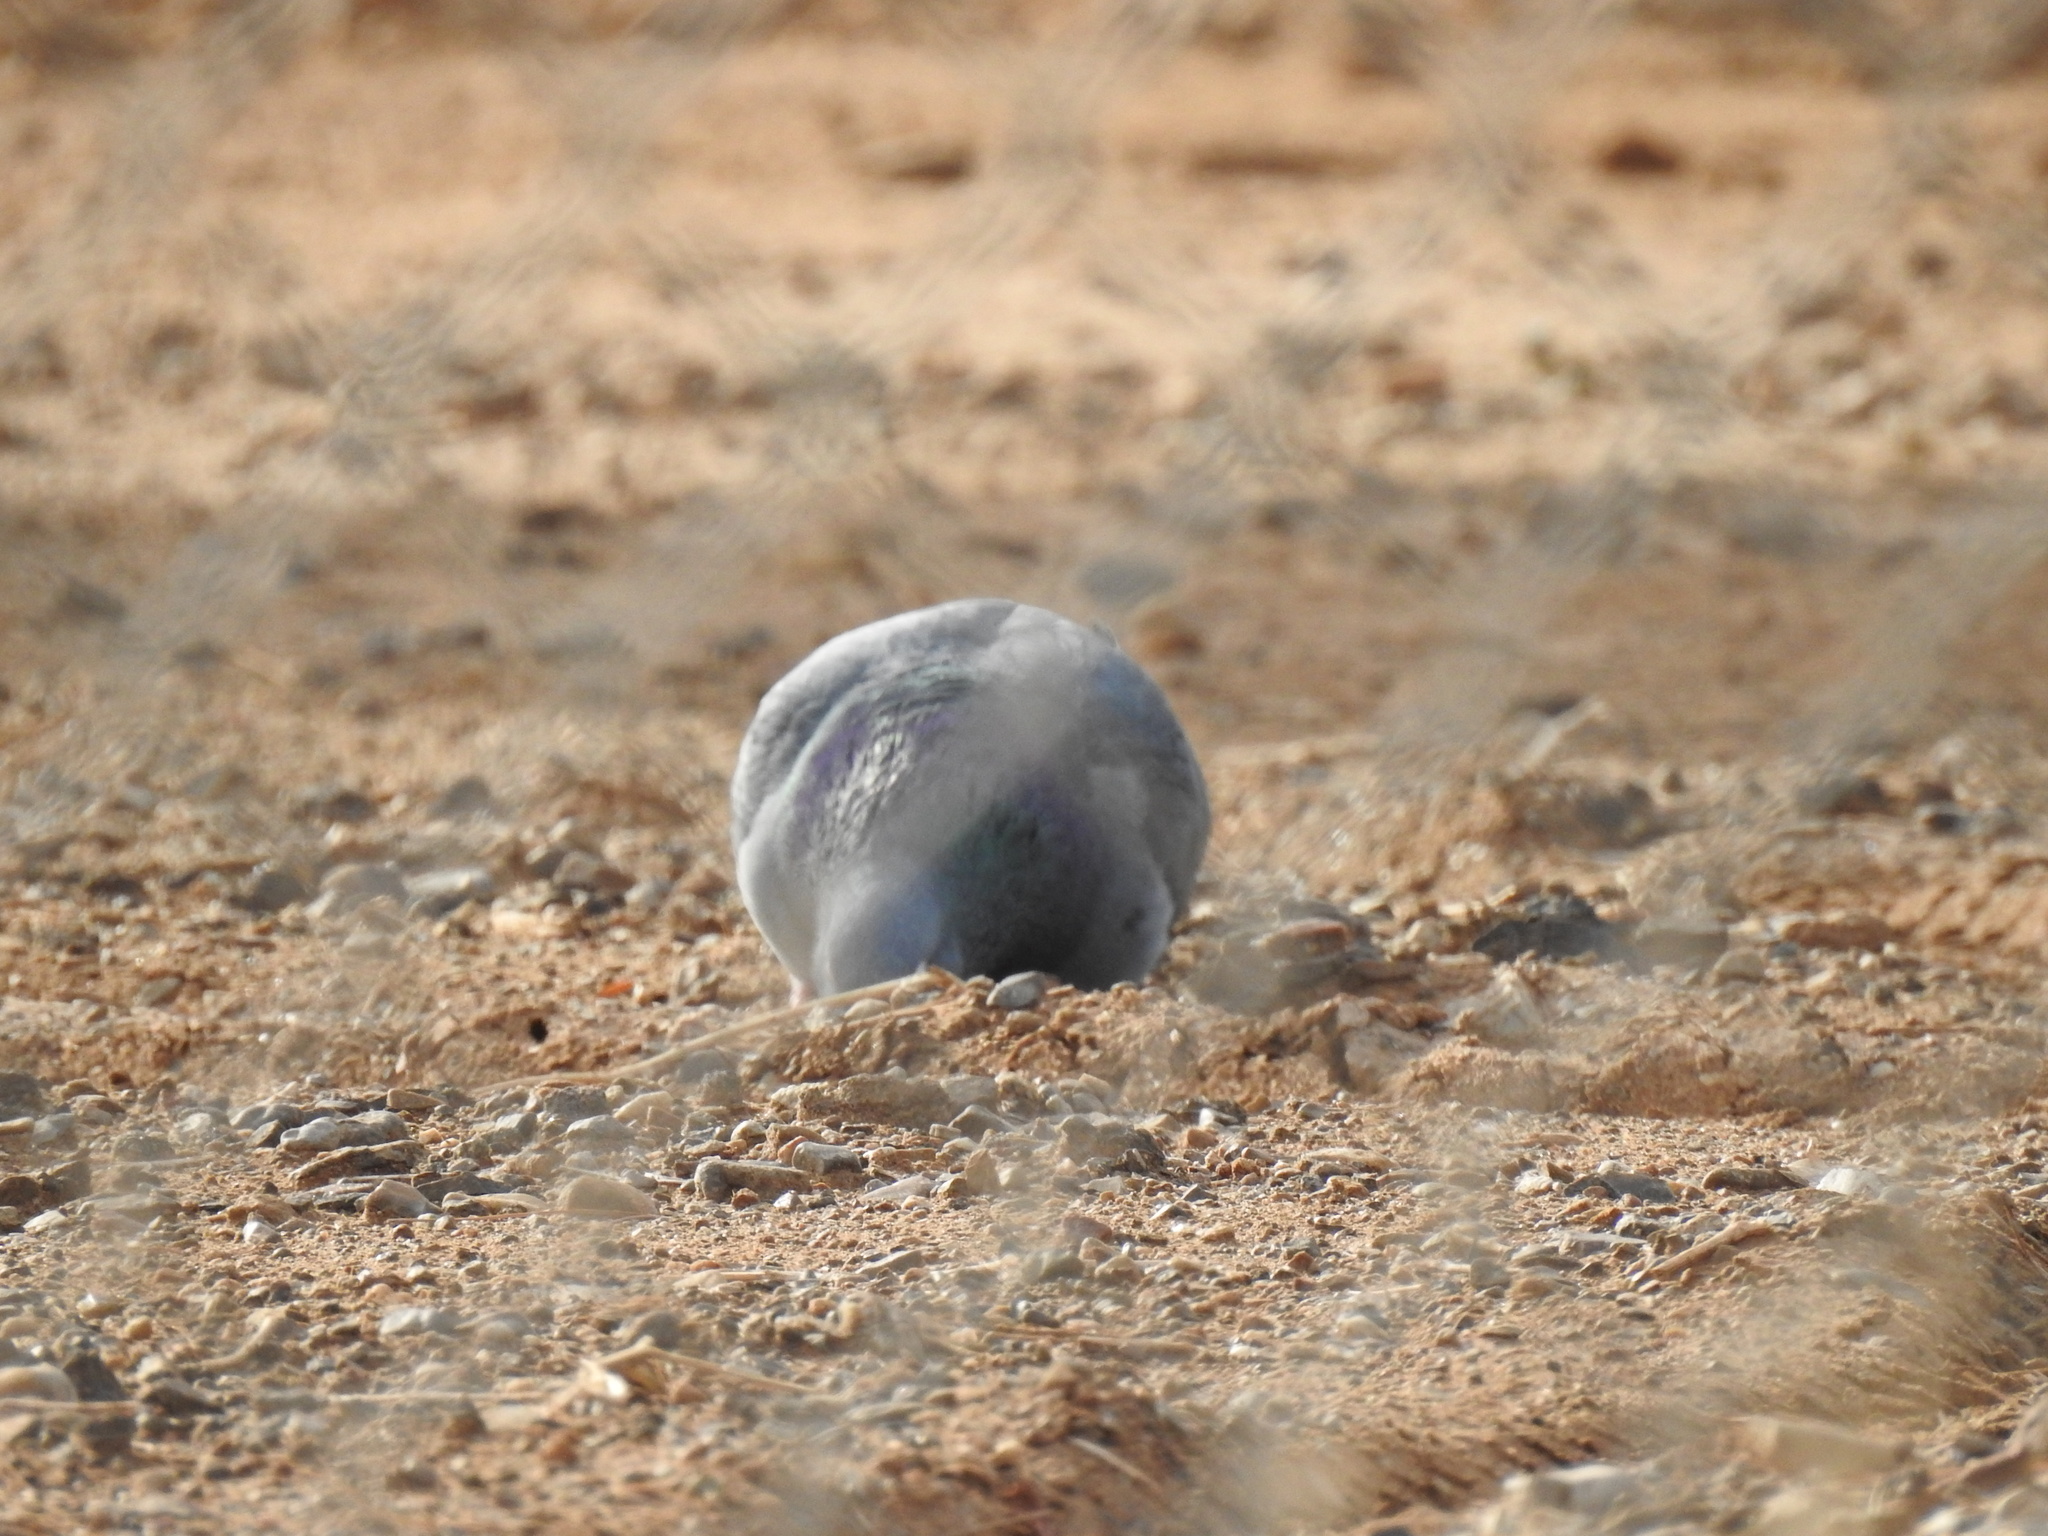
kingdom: Animalia
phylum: Chordata
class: Aves
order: Columbiformes
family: Columbidae
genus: Columba
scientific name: Columba livia
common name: Rock pigeon
